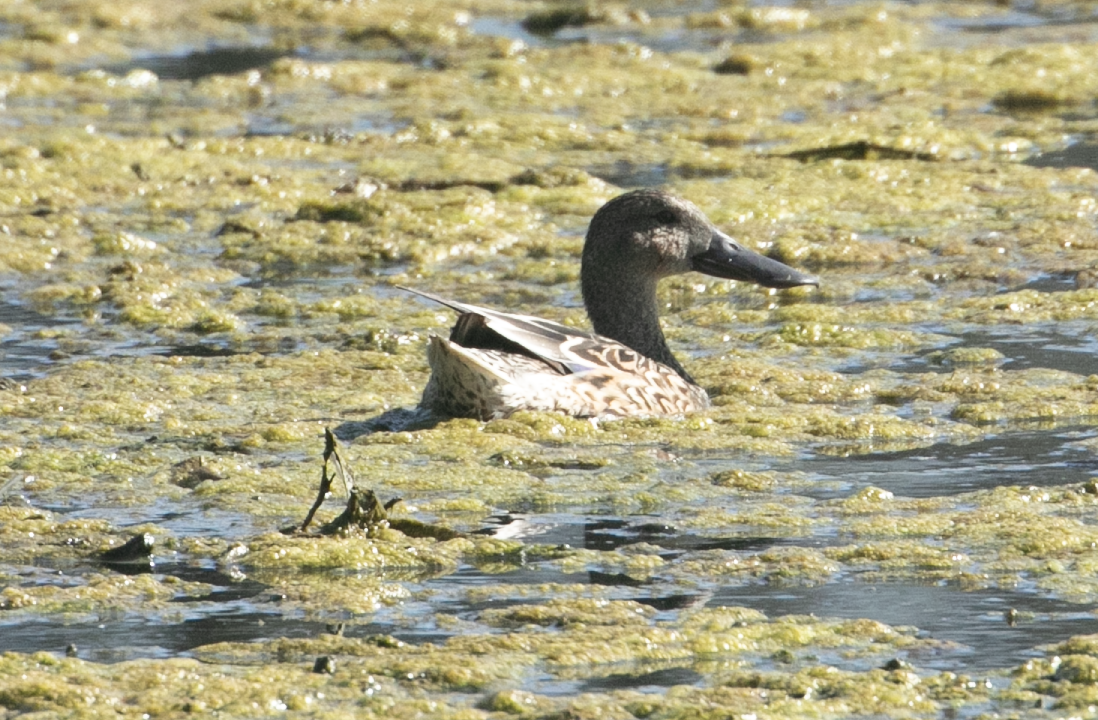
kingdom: Animalia
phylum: Chordata
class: Aves
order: Anseriformes
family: Anatidae
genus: Spatula
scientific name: Spatula clypeata
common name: Northern shoveler
